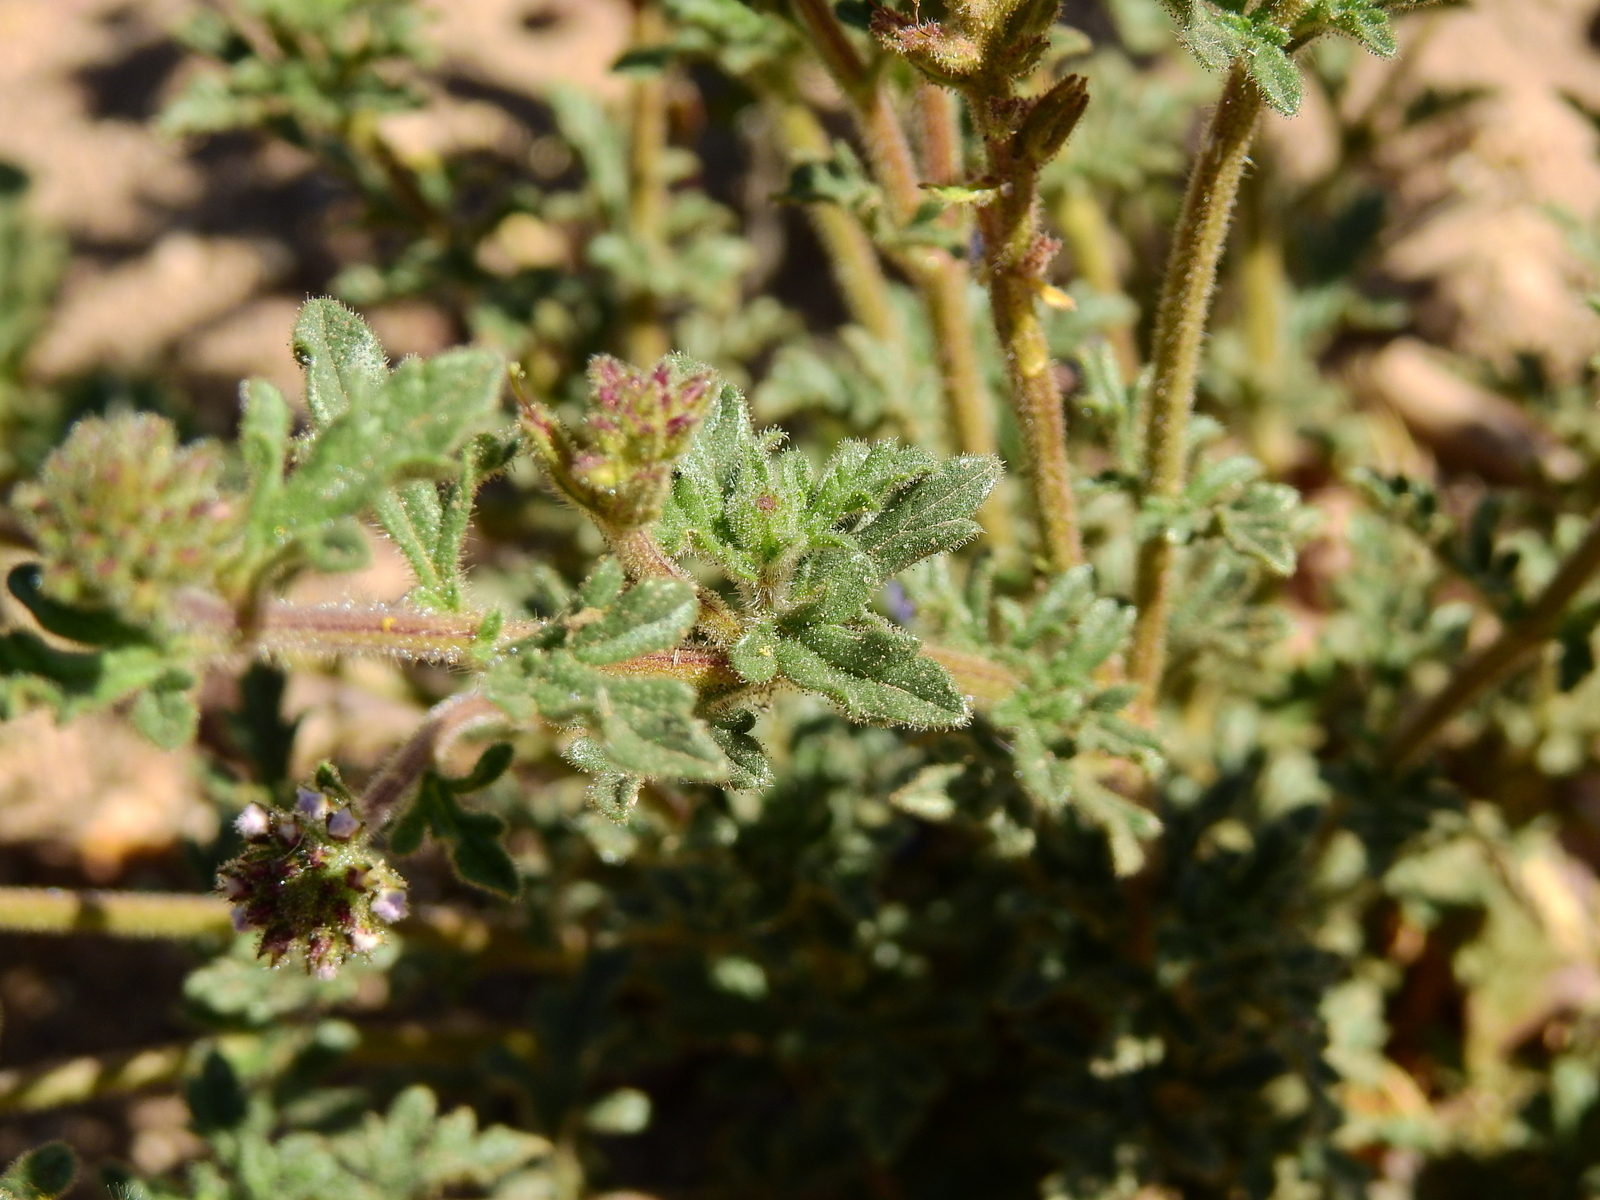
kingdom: Plantae
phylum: Tracheophyta
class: Magnoliopsida
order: Lamiales
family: Verbenaceae
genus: Verbena
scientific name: Verbena mendocina
